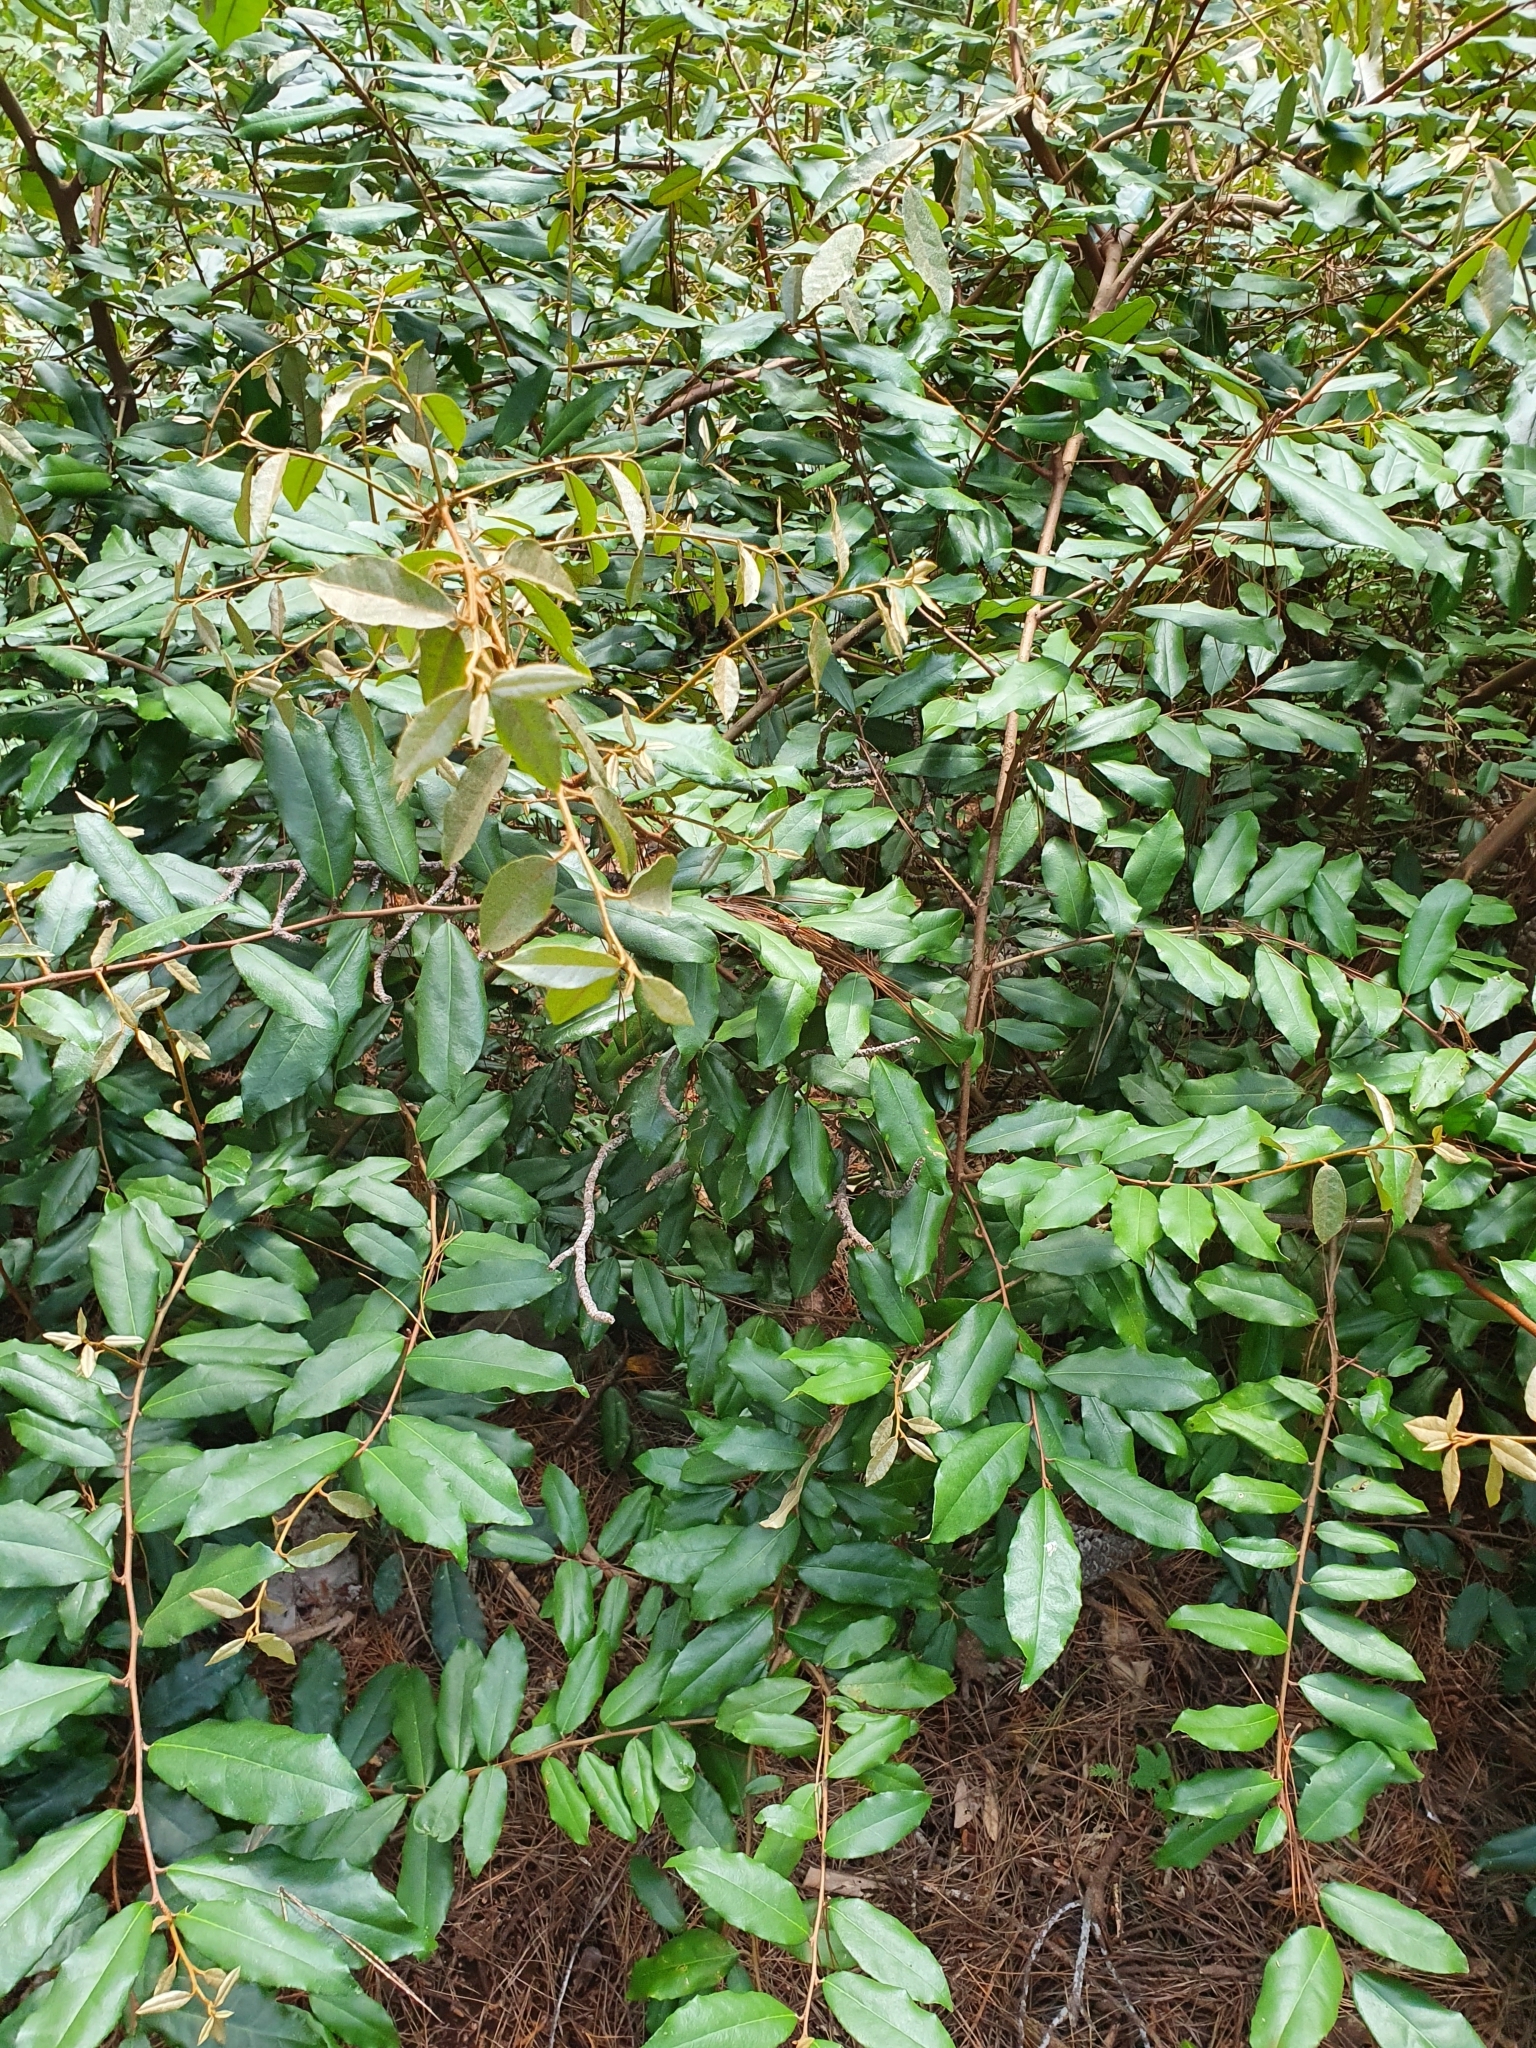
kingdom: Plantae
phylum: Tracheophyta
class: Magnoliopsida
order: Rosales
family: Elaeagnaceae
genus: Elaeagnus
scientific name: Elaeagnus reflexa
